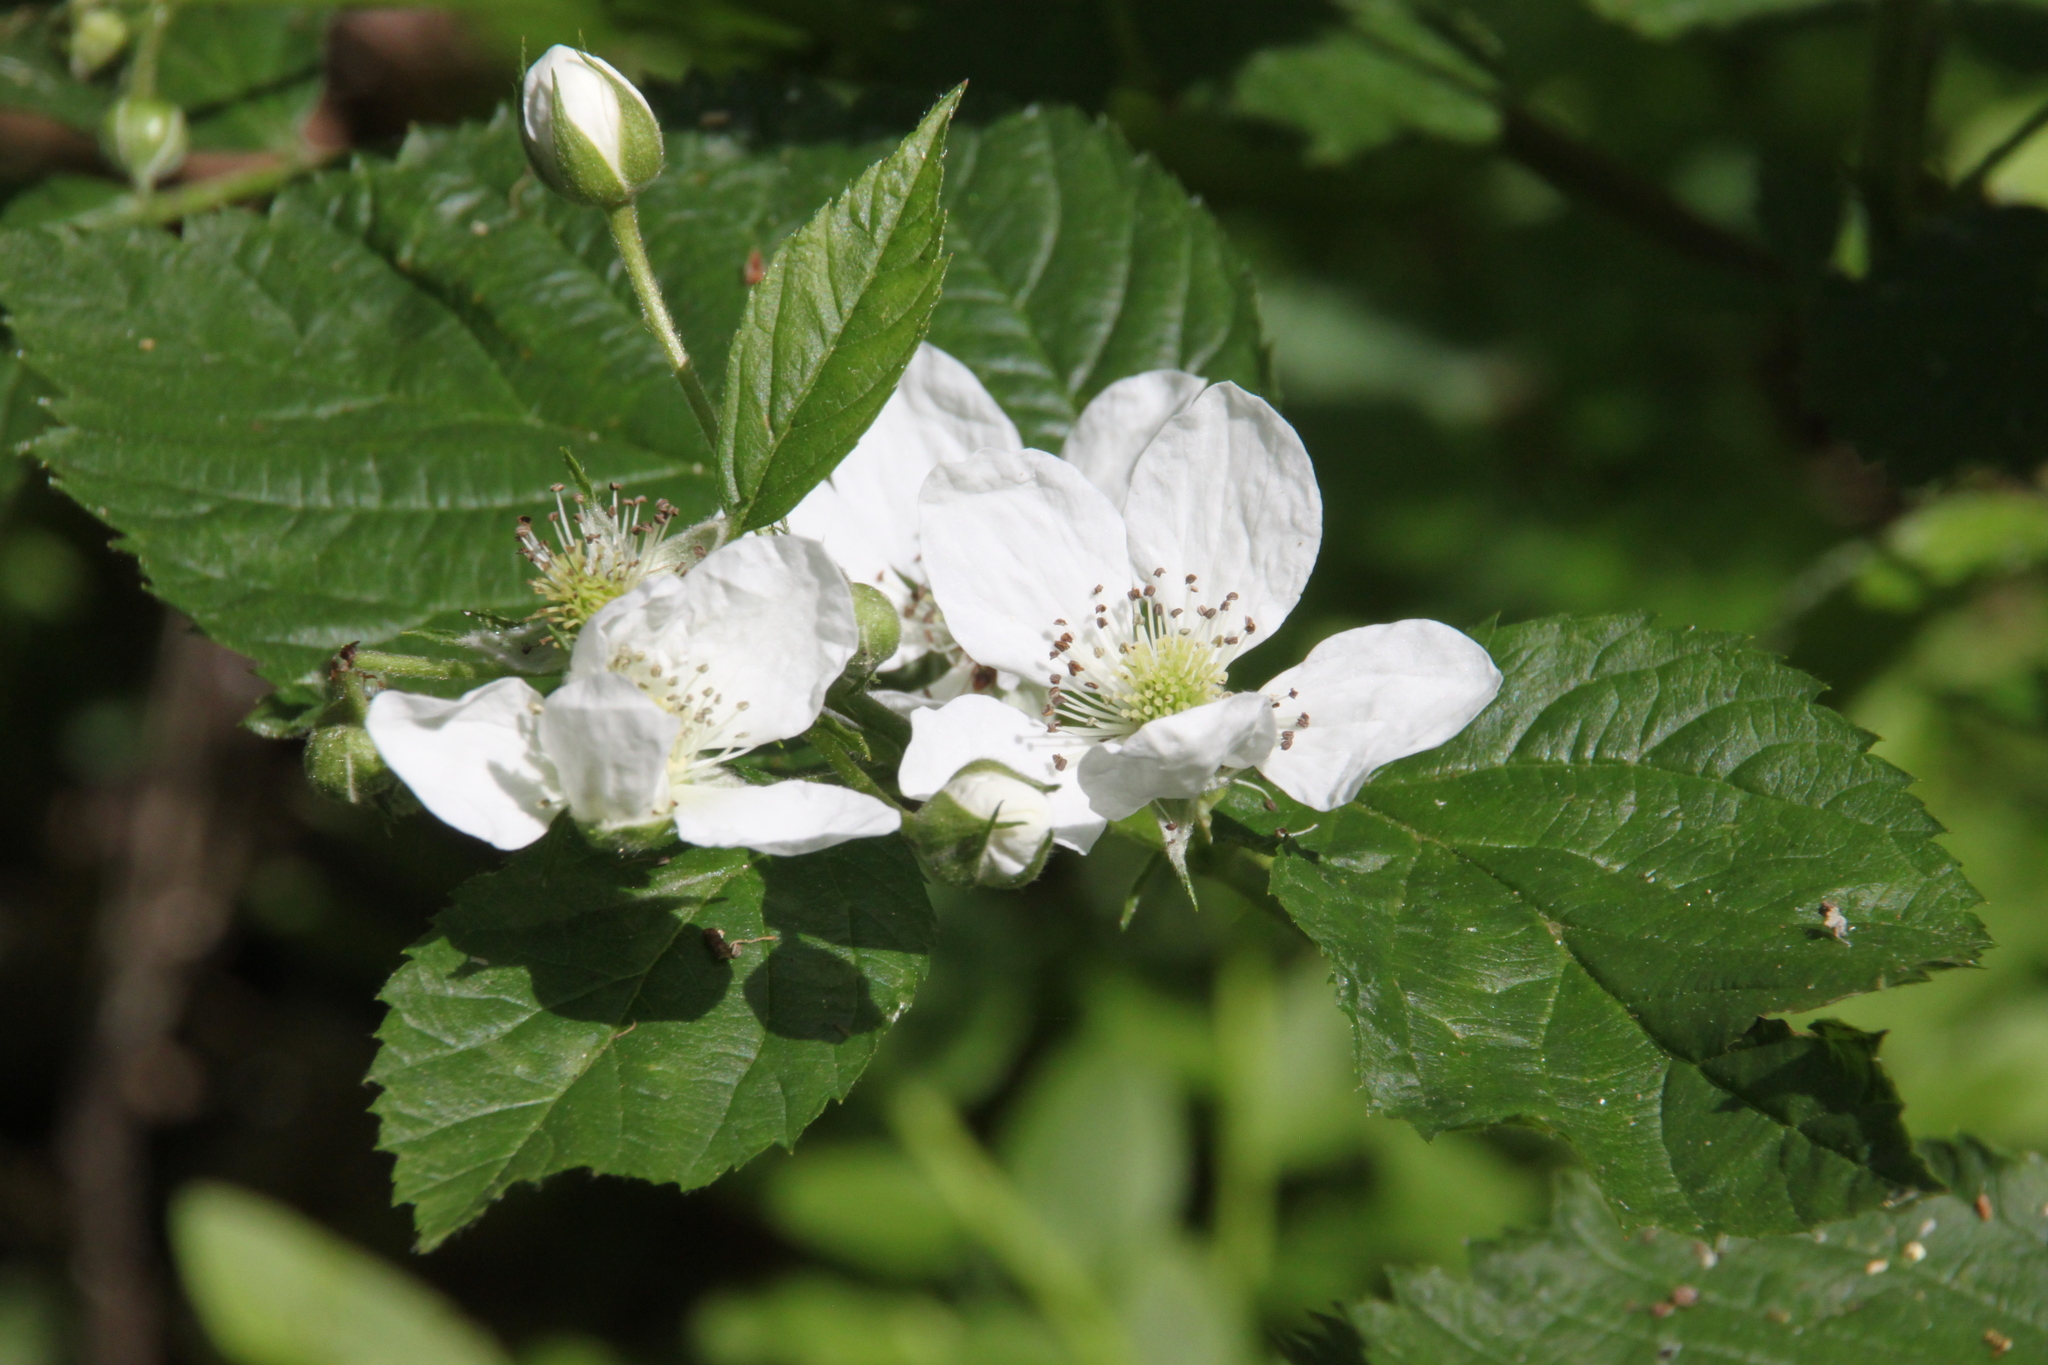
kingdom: Plantae
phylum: Tracheophyta
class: Magnoliopsida
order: Rosales
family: Rosaceae
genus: Rubus
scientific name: Rubus polonicus
